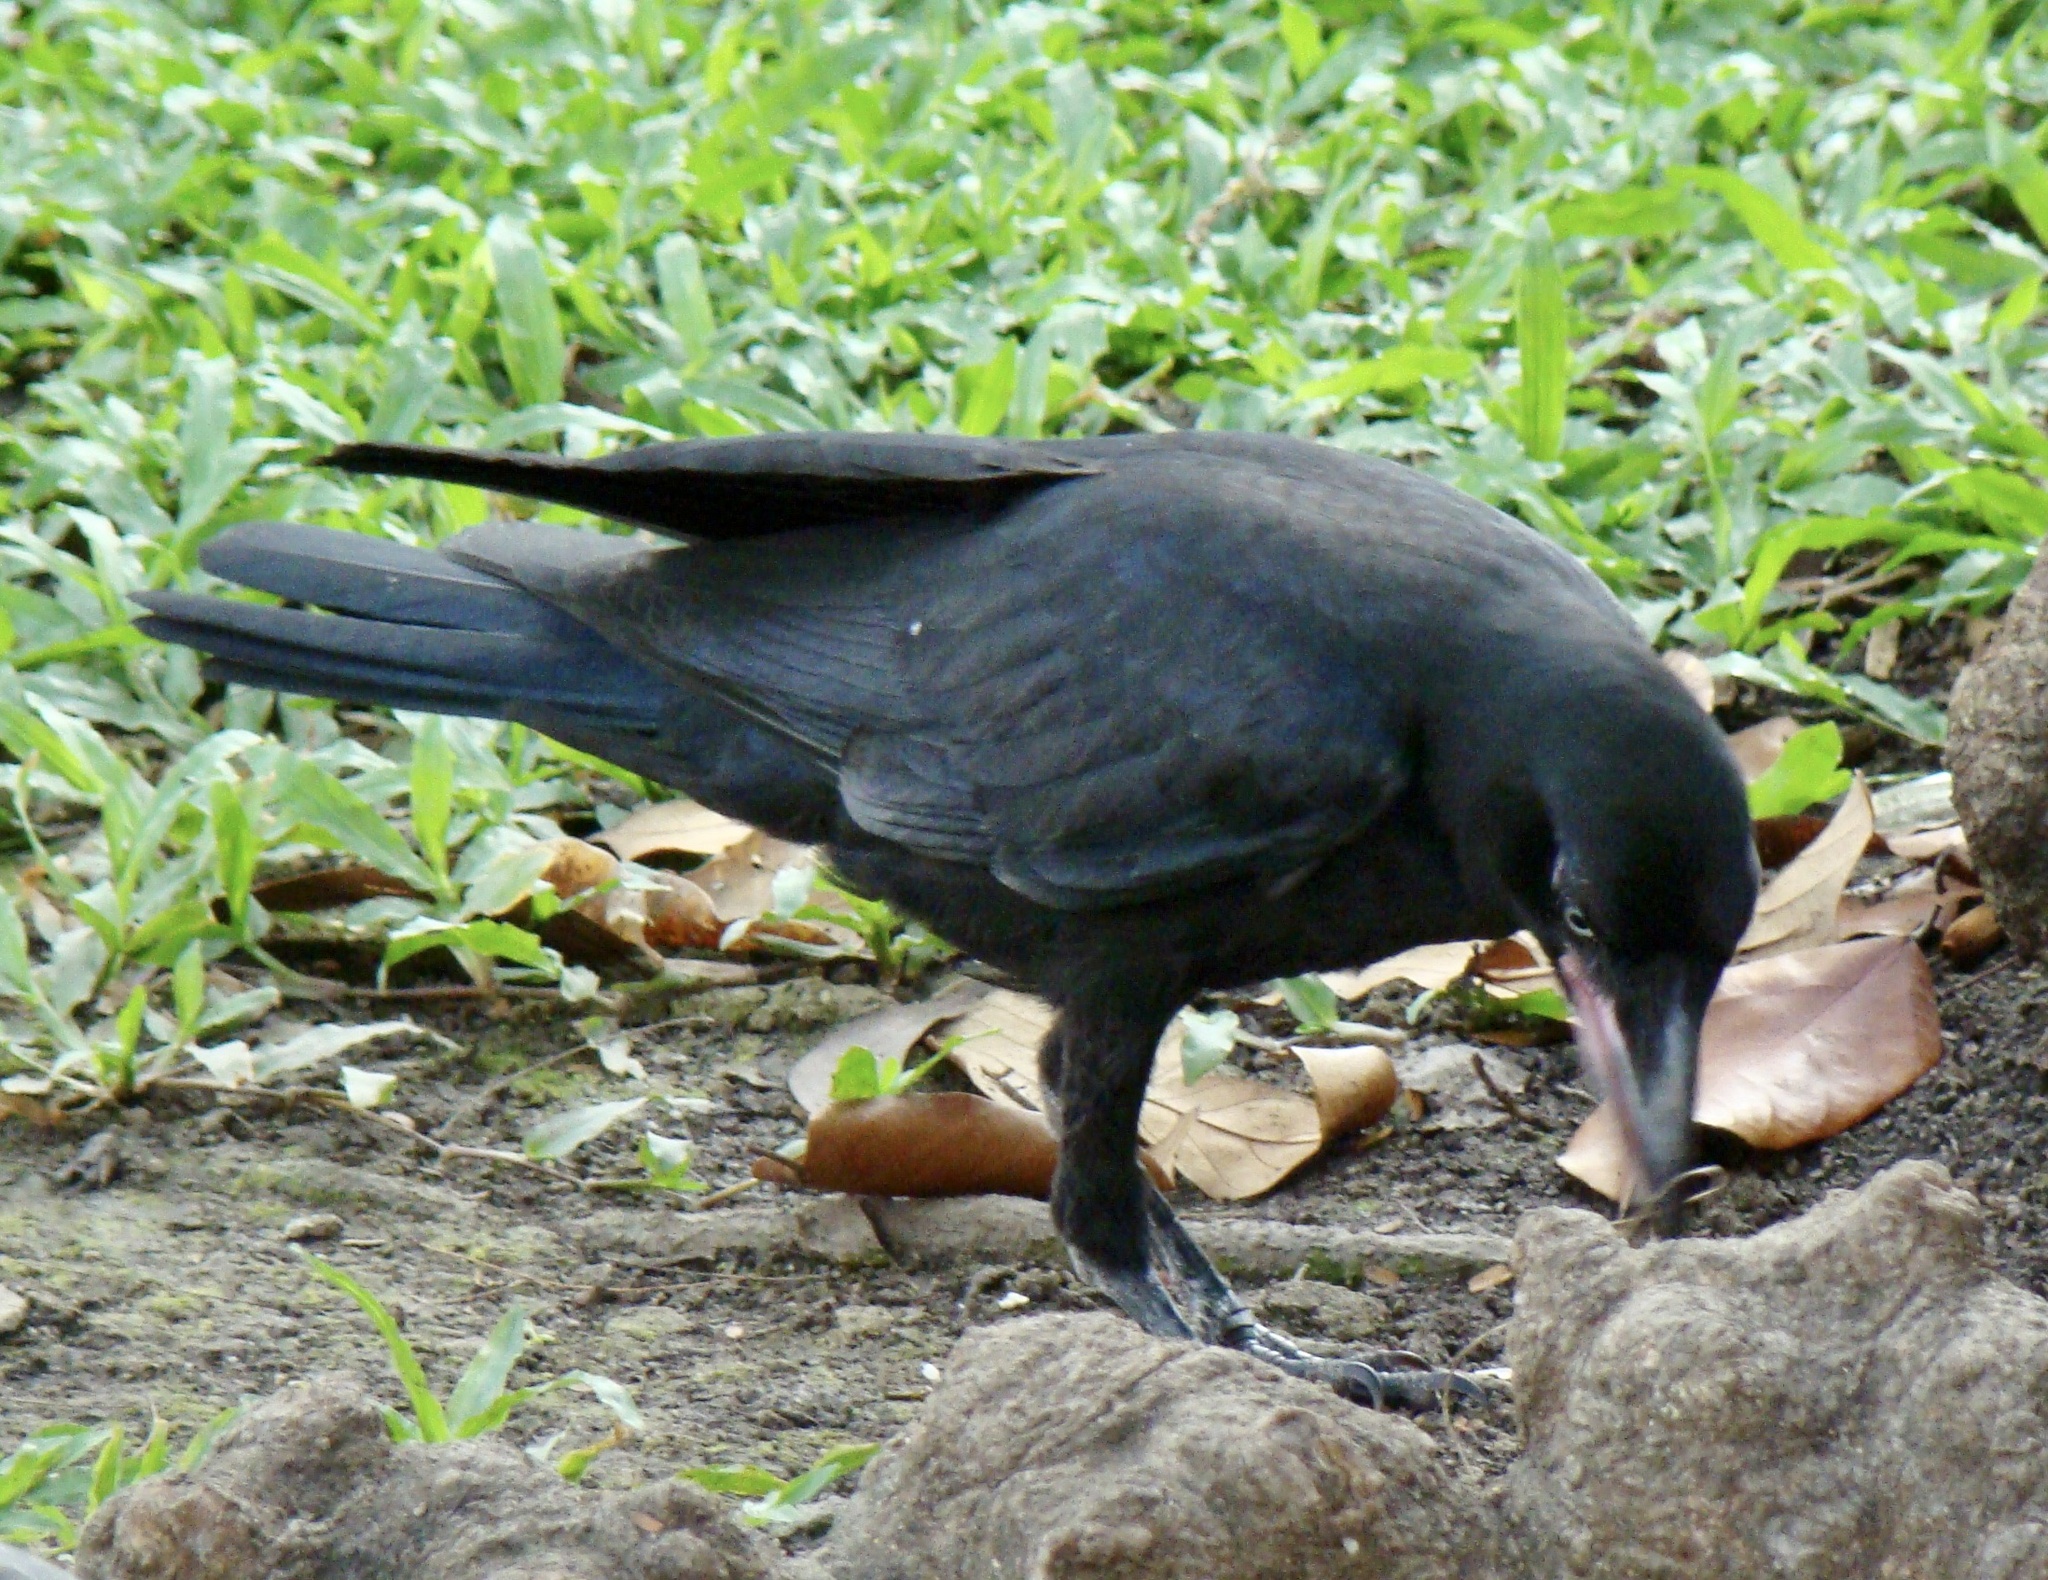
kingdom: Animalia
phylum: Chordata
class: Aves
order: Passeriformes
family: Corvidae
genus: Corvus
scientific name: Corvus macrorhynchos
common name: Large-billed crow
